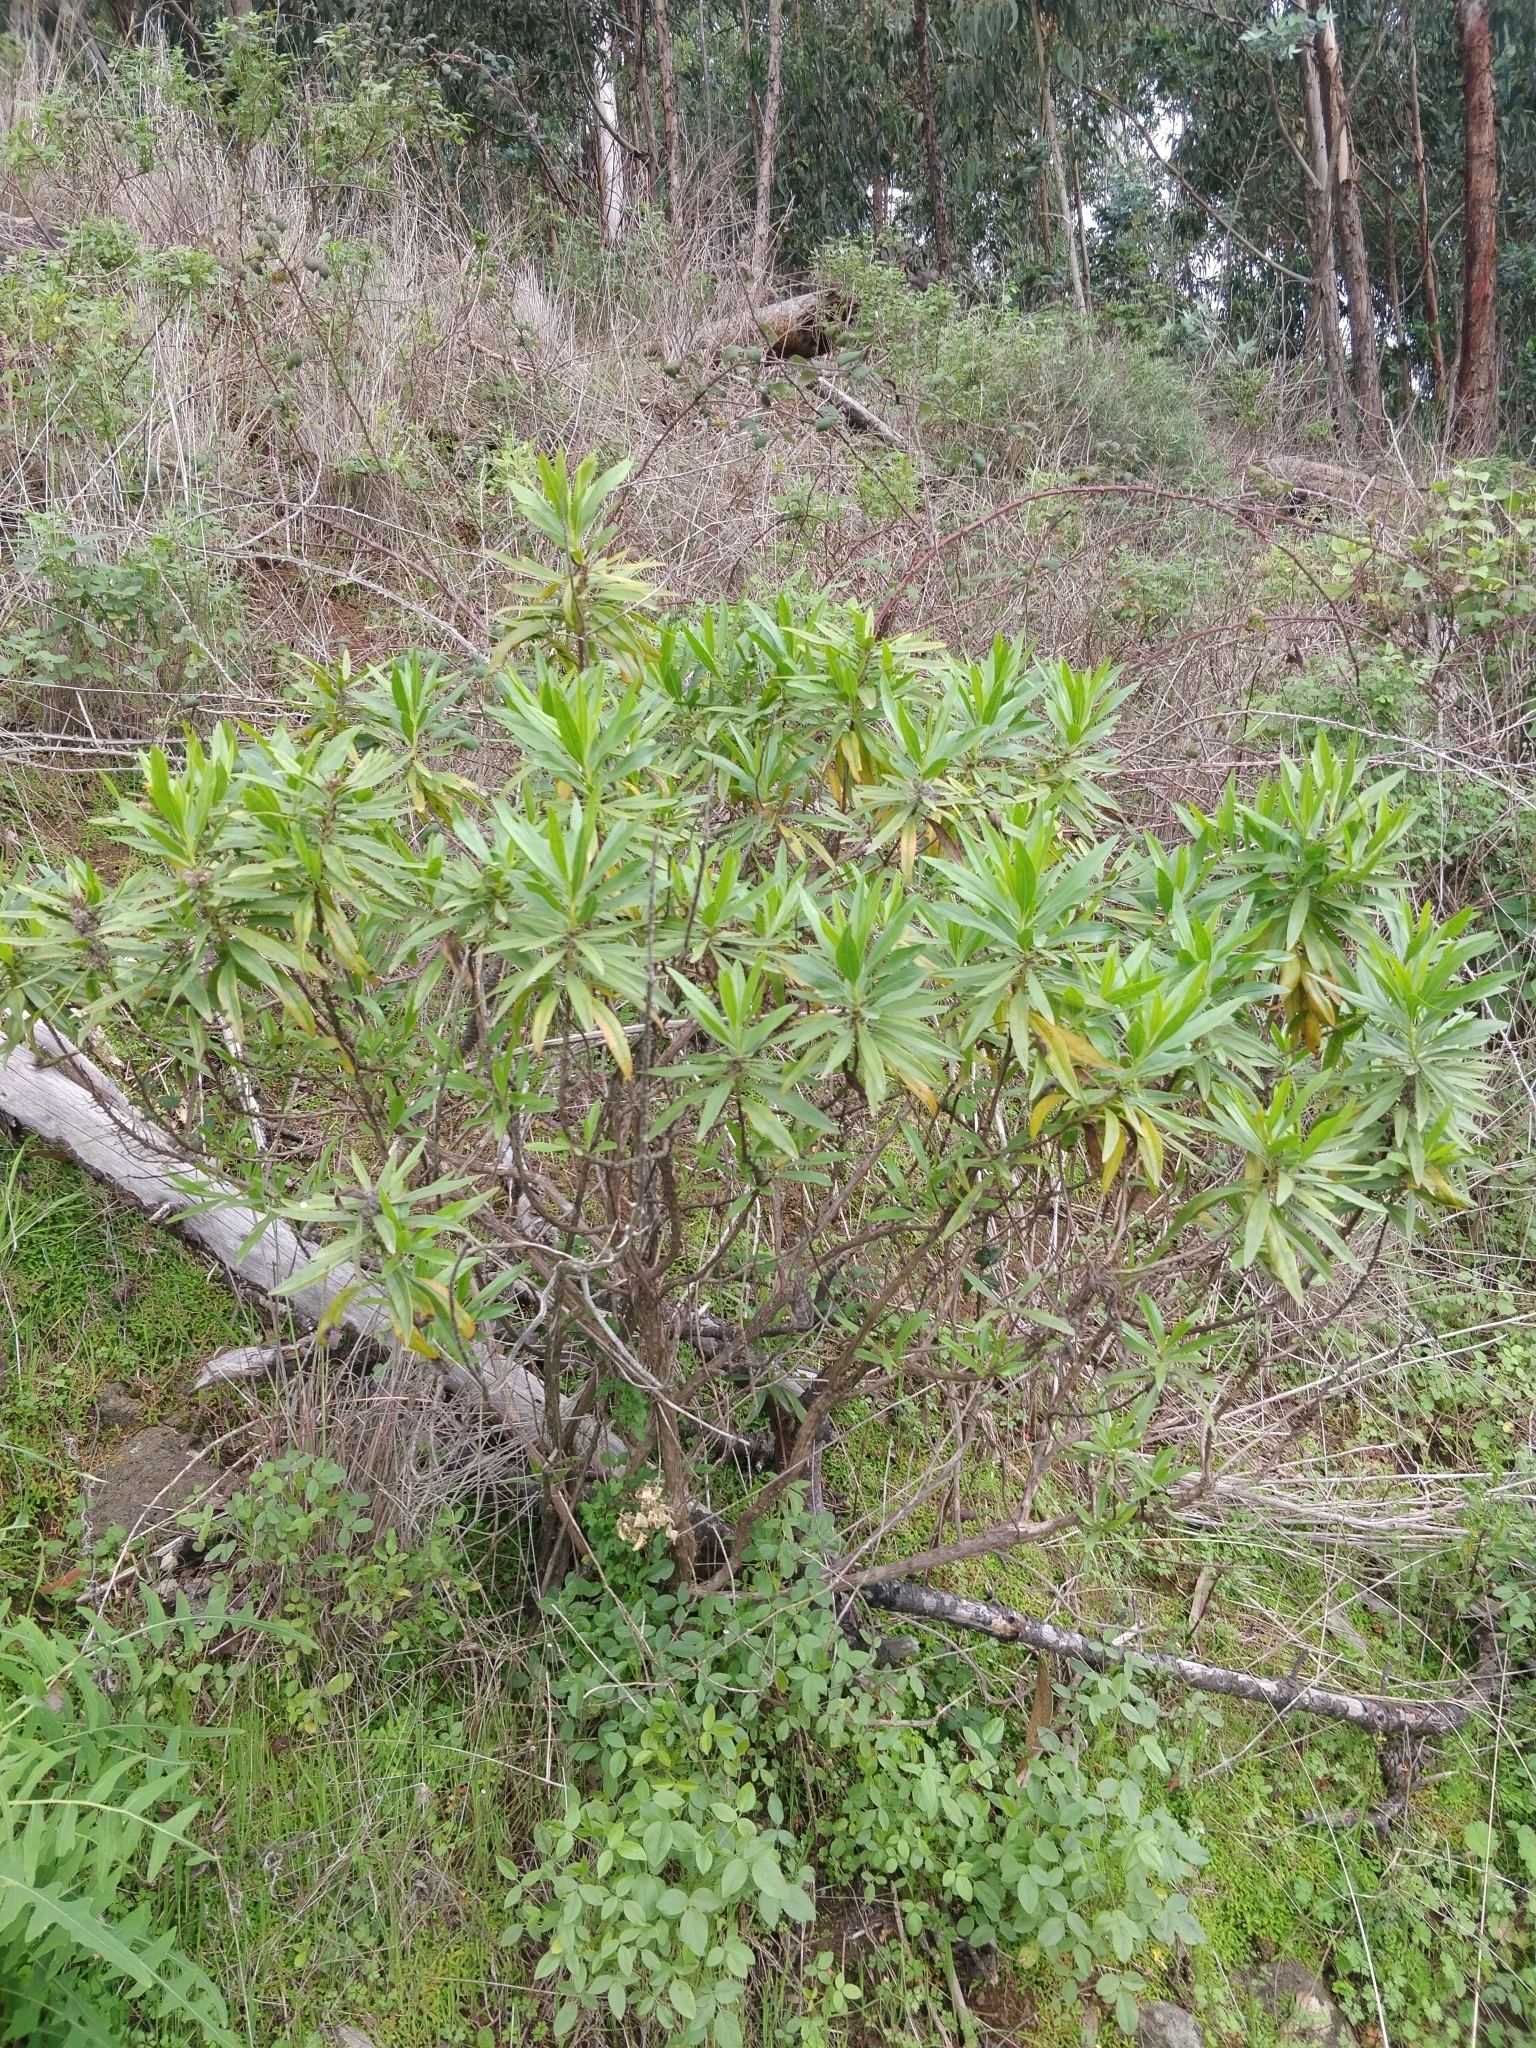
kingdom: Plantae
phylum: Tracheophyta
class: Magnoliopsida
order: Lamiales
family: Plantaginaceae
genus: Globularia
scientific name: Globularia salicina
